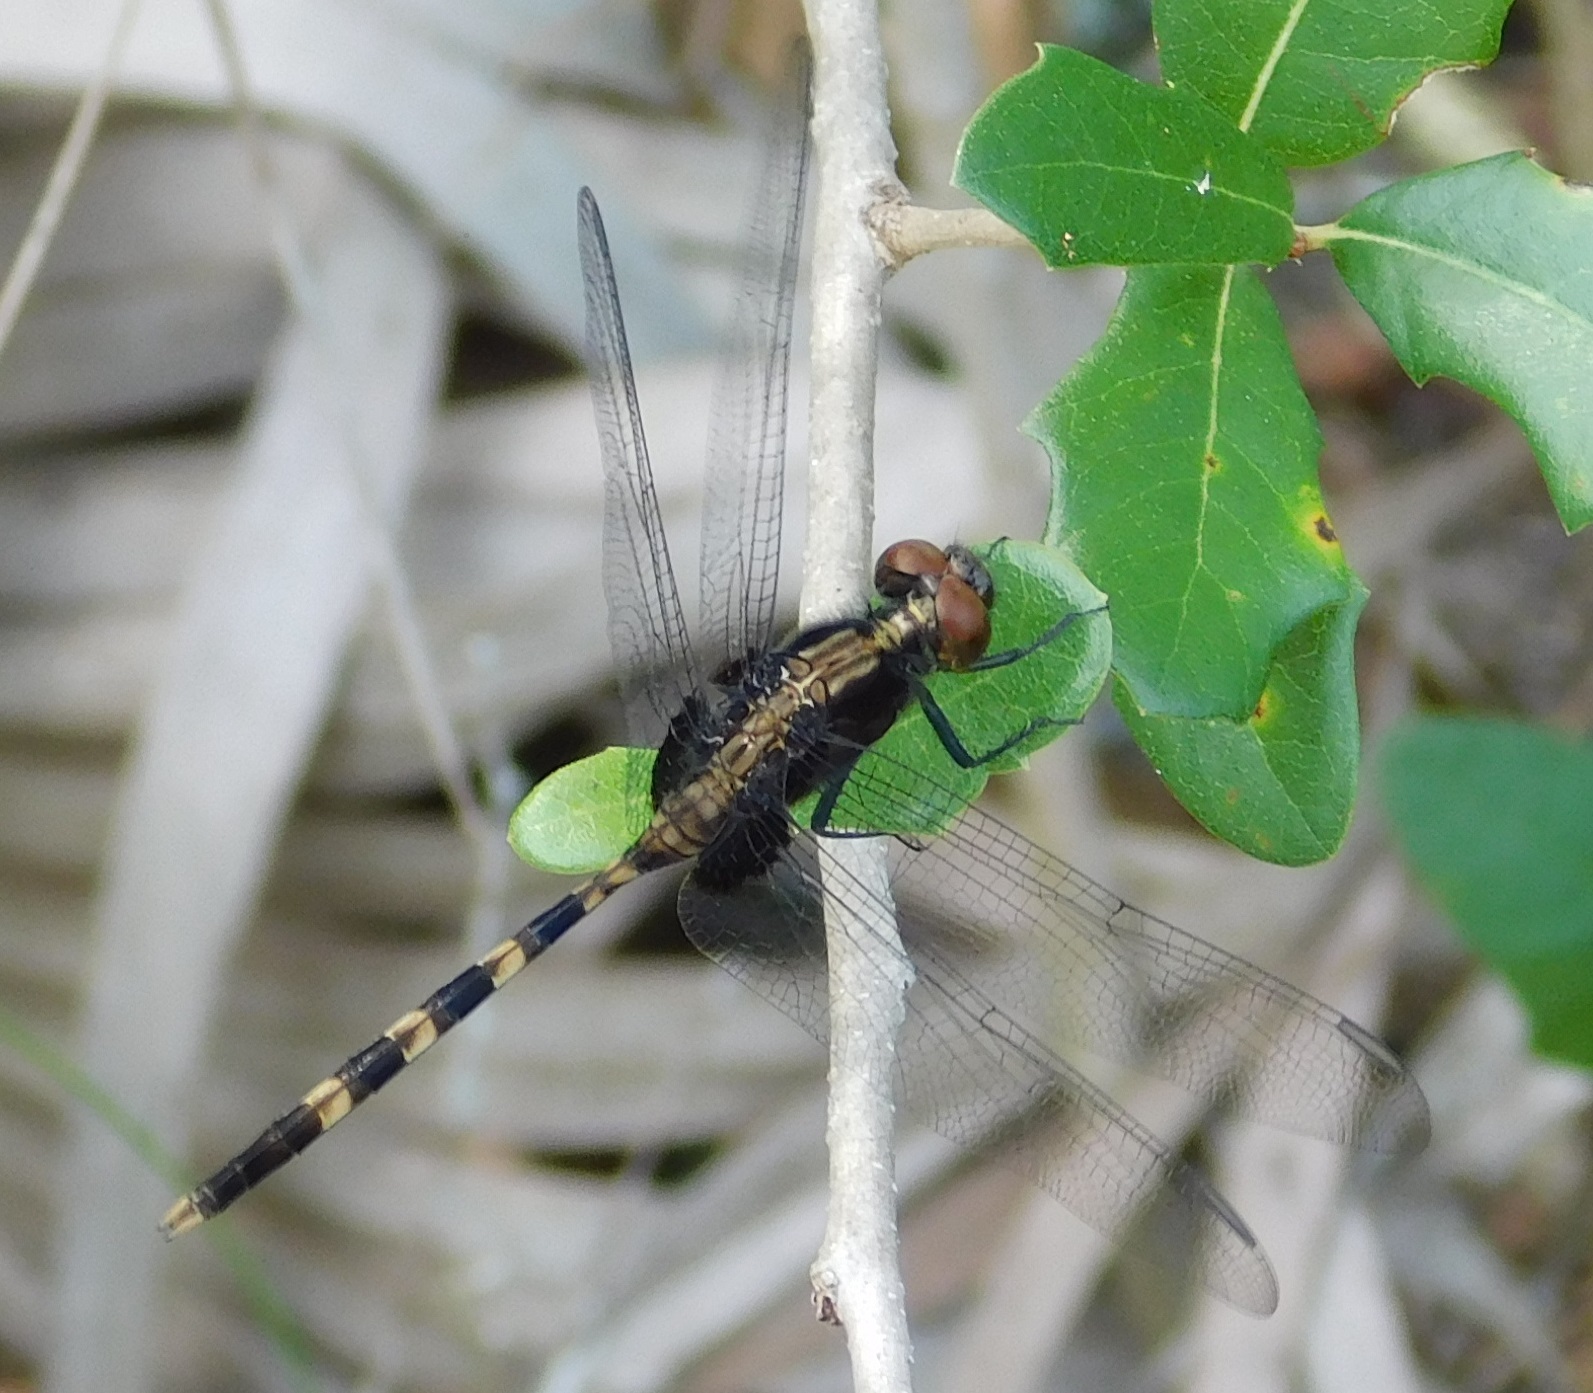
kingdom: Animalia
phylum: Arthropoda
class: Insecta
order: Odonata
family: Libellulidae
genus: Erythemis
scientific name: Erythemis plebeja
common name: Pin-tailed pondhawk
